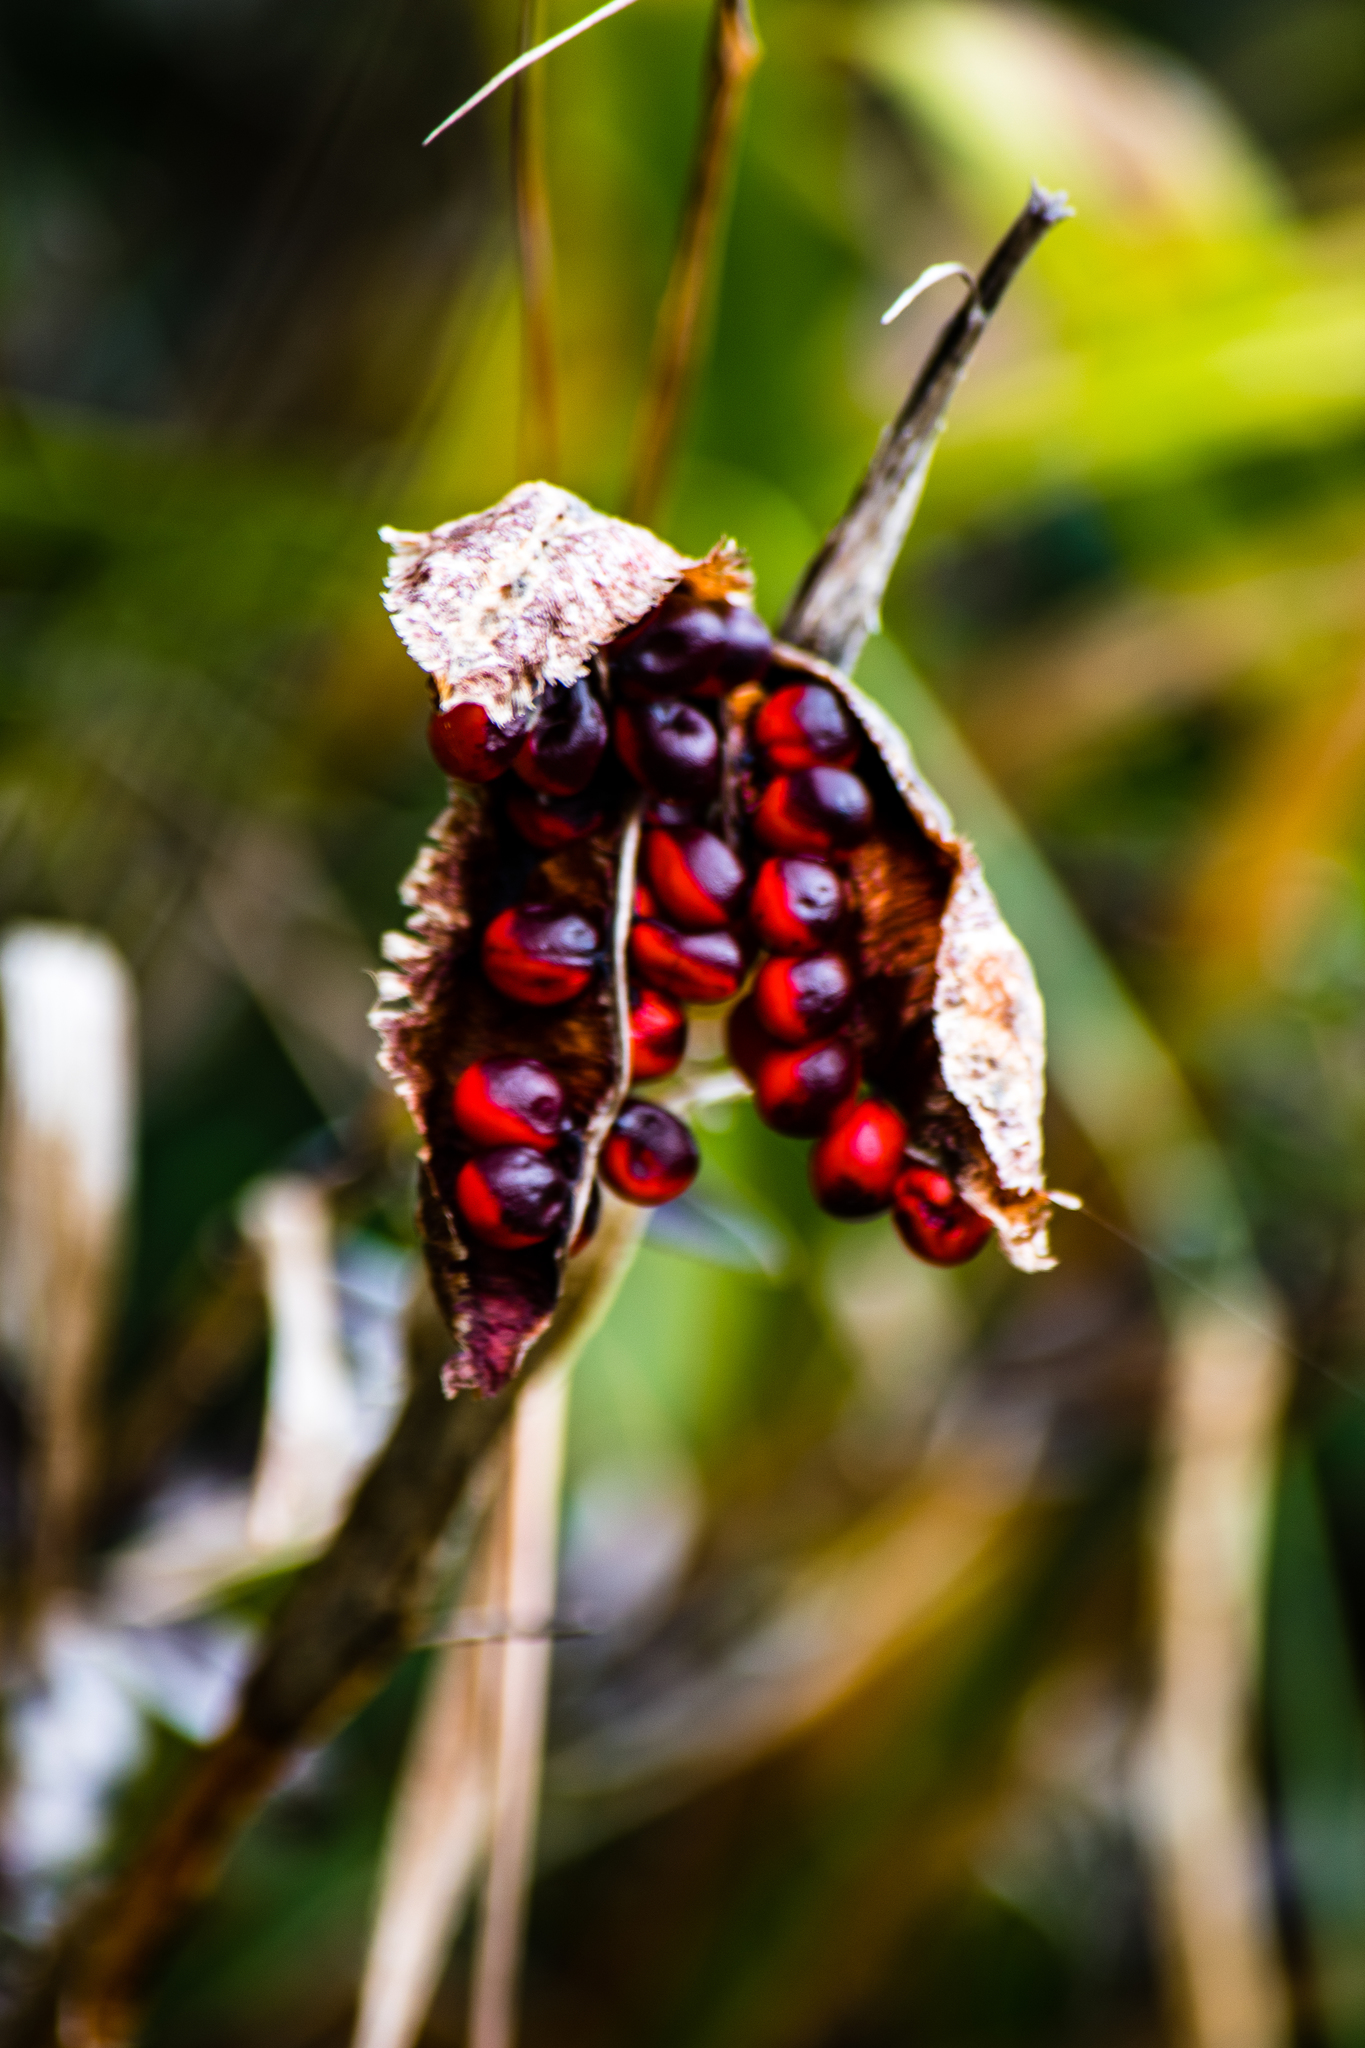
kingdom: Plantae
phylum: Tracheophyta
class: Liliopsida
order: Asparagales
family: Iridaceae
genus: Iris
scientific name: Iris foetidissima
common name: Stinking iris
